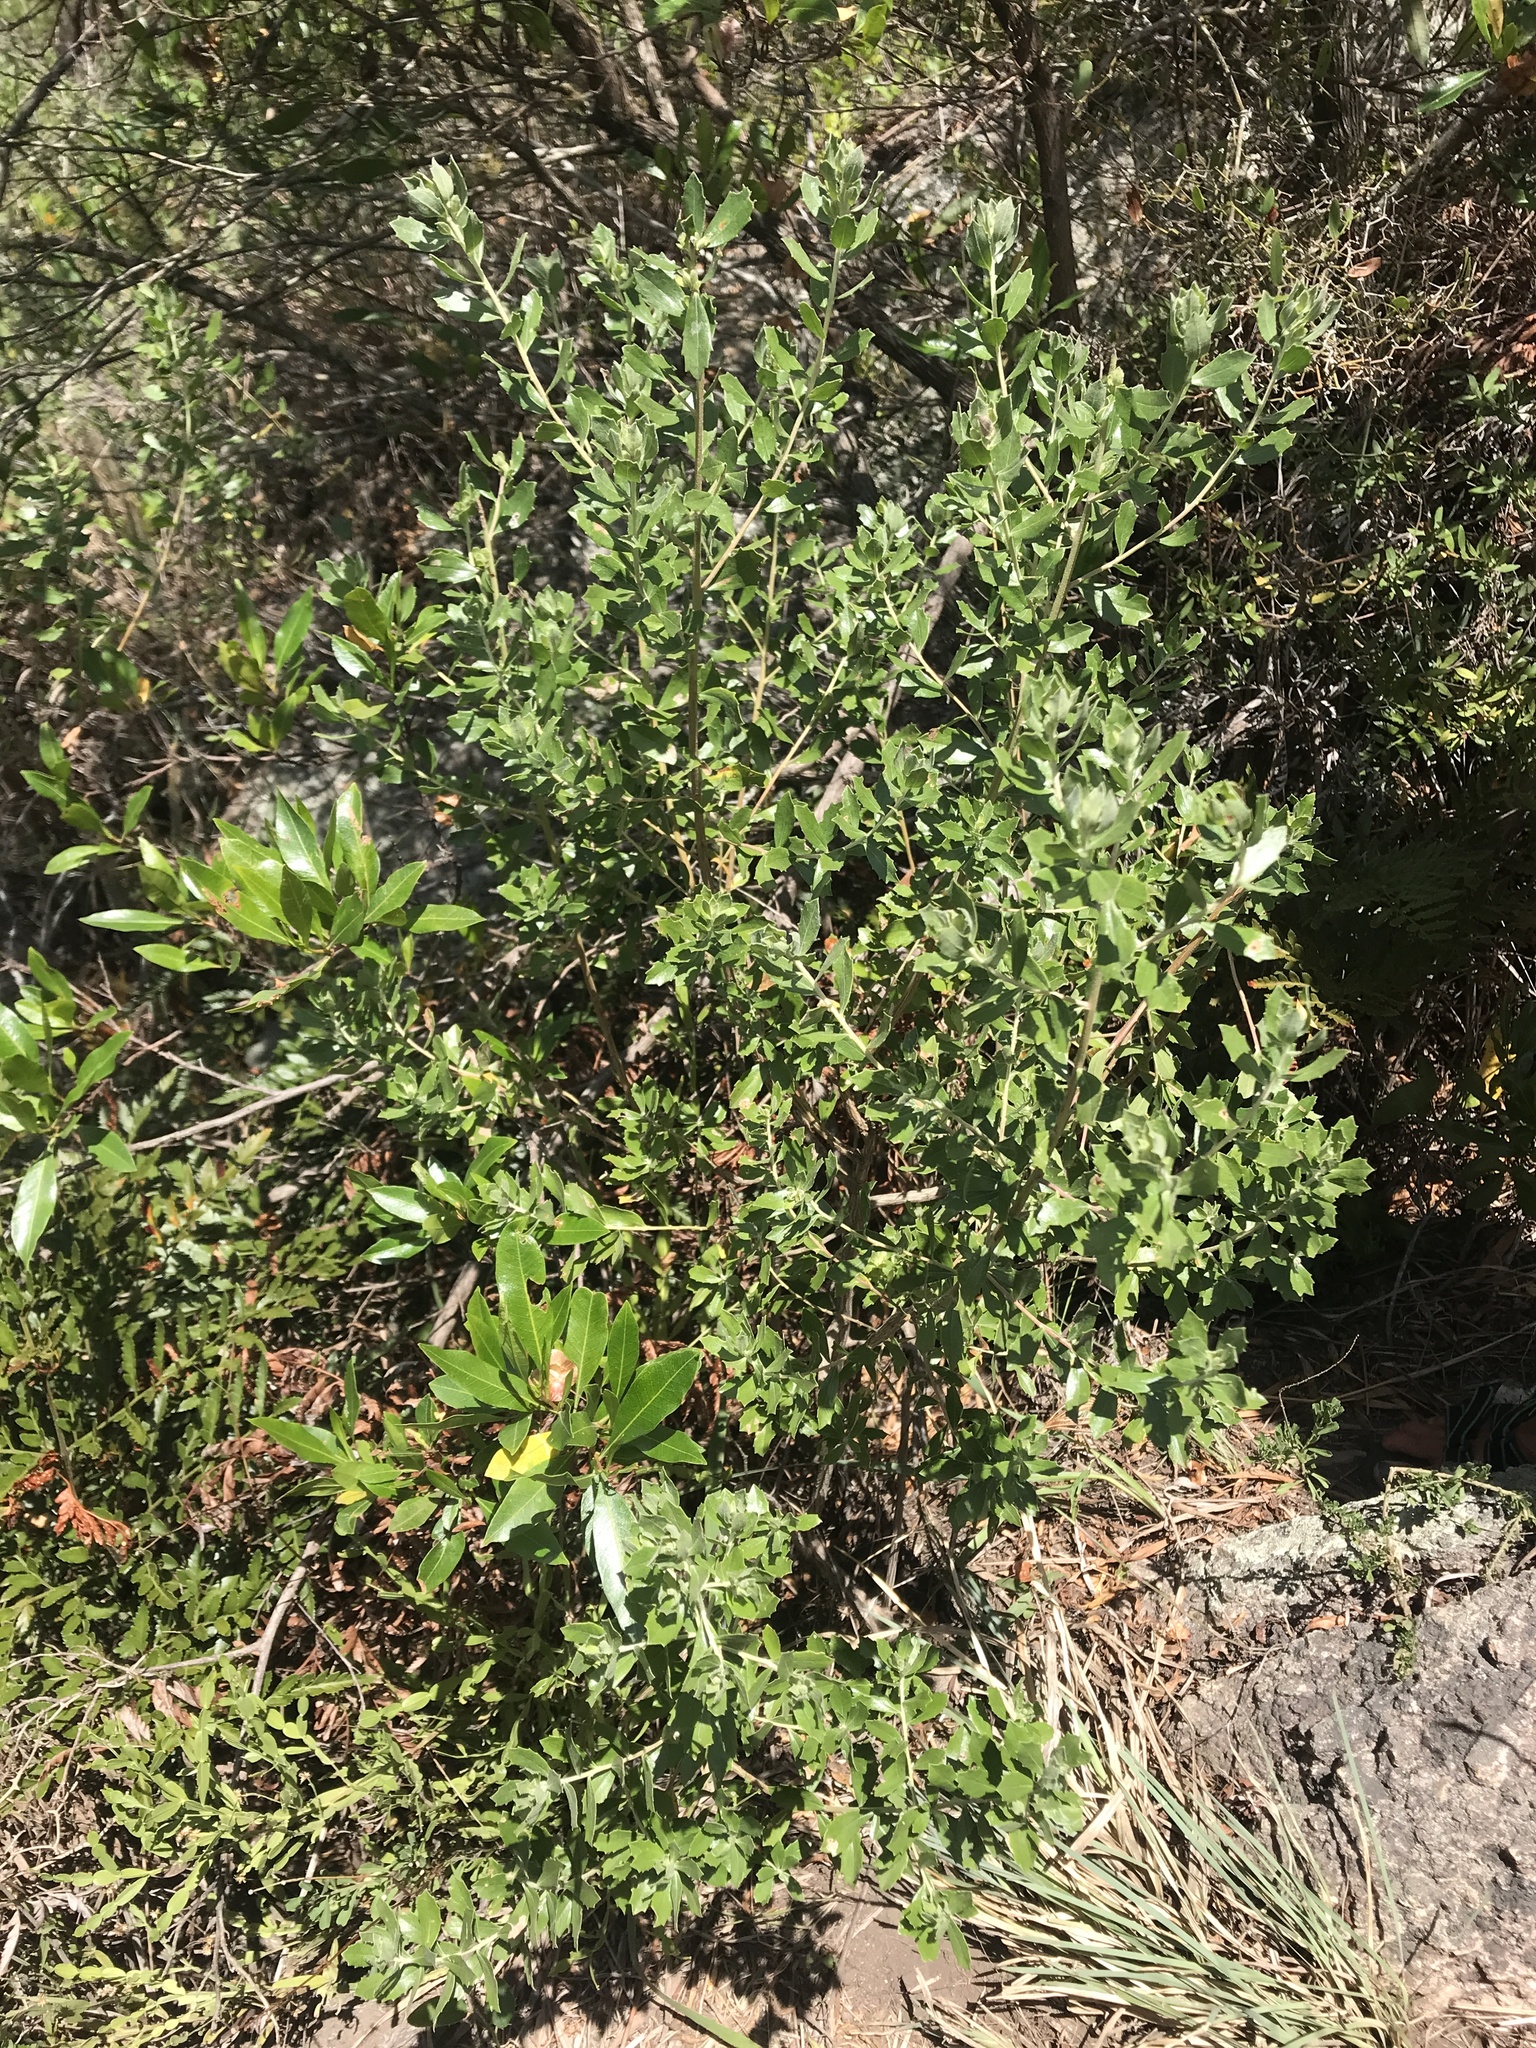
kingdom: Plantae
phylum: Tracheophyta
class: Magnoliopsida
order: Asterales
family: Asteraceae
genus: Baccharis
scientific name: Baccharis dracunculifolia
